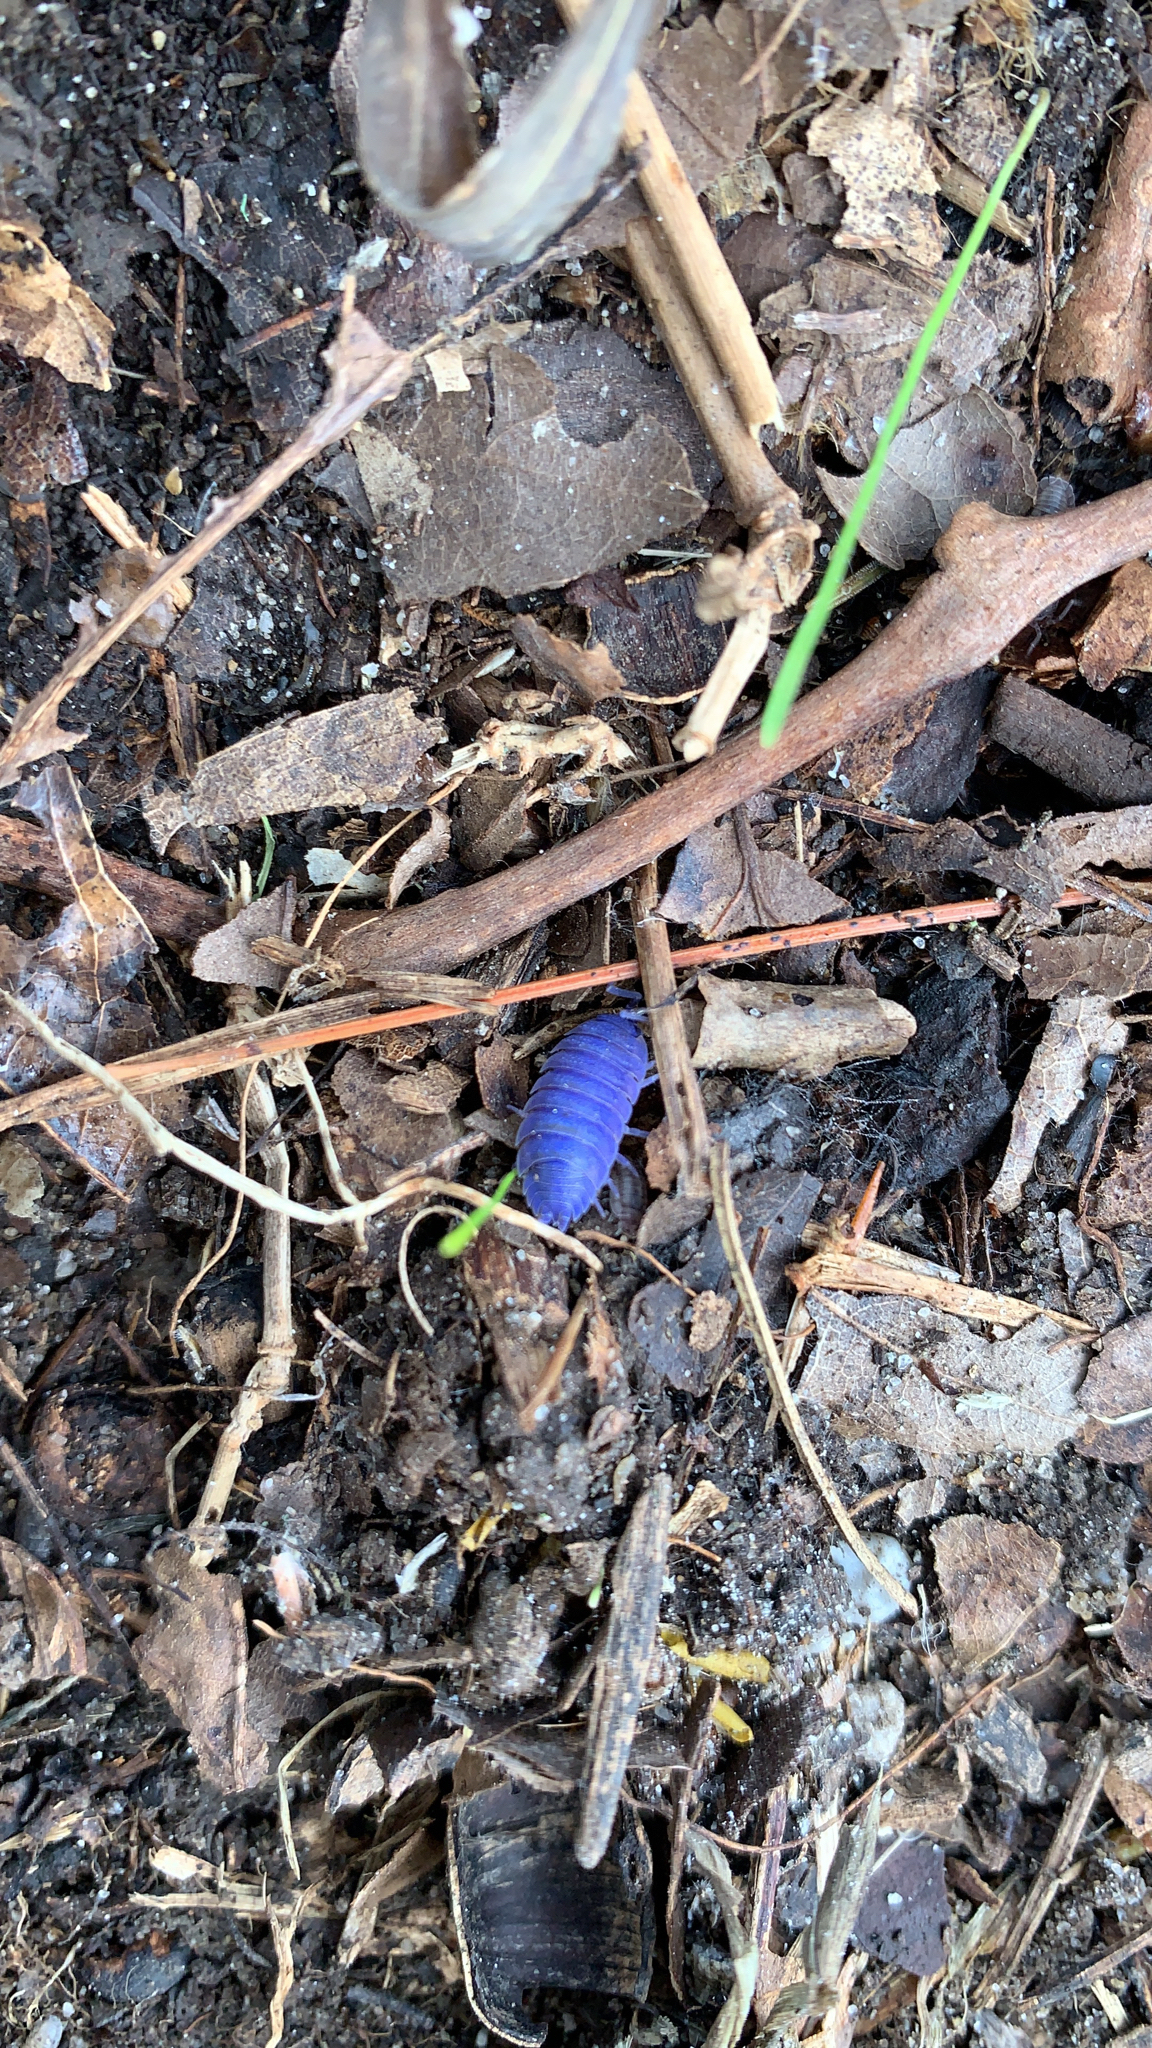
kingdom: Viruses
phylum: Nucleocytoviricota
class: Megaviricetes
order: Pimascovirales
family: Iridoviridae
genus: Iridovirus
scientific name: Iridovirus Invertebrate iridescent virus 31
